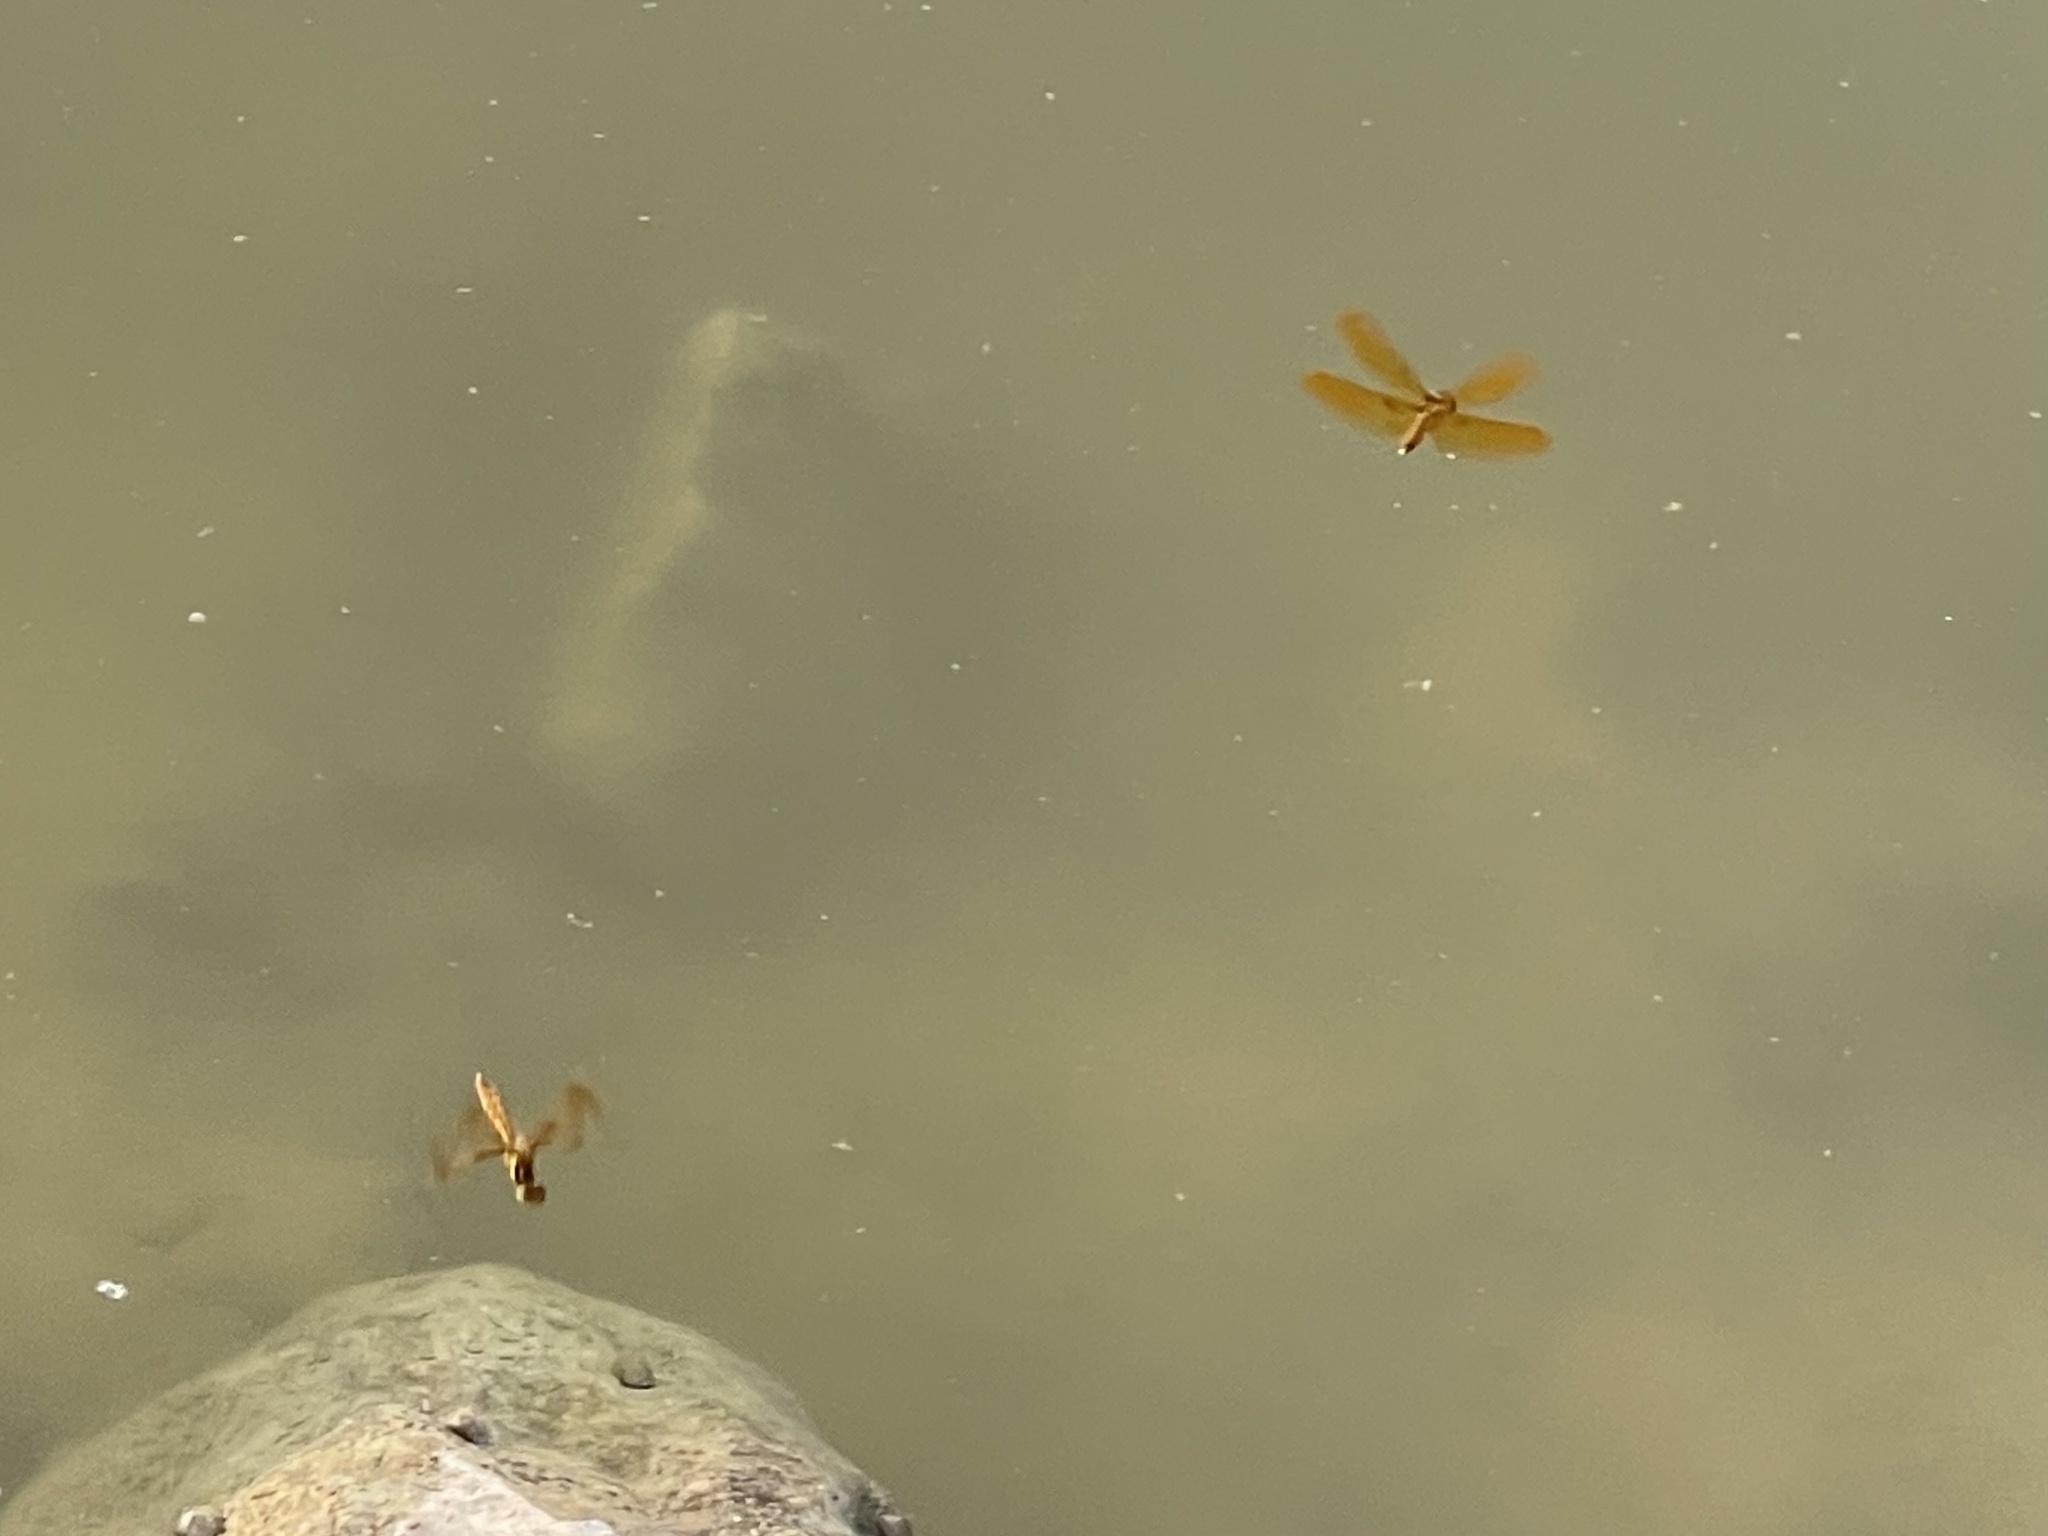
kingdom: Animalia
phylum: Arthropoda
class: Insecta
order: Odonata
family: Libellulidae
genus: Perithemis
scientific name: Perithemis tenera
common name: Eastern amberwing
